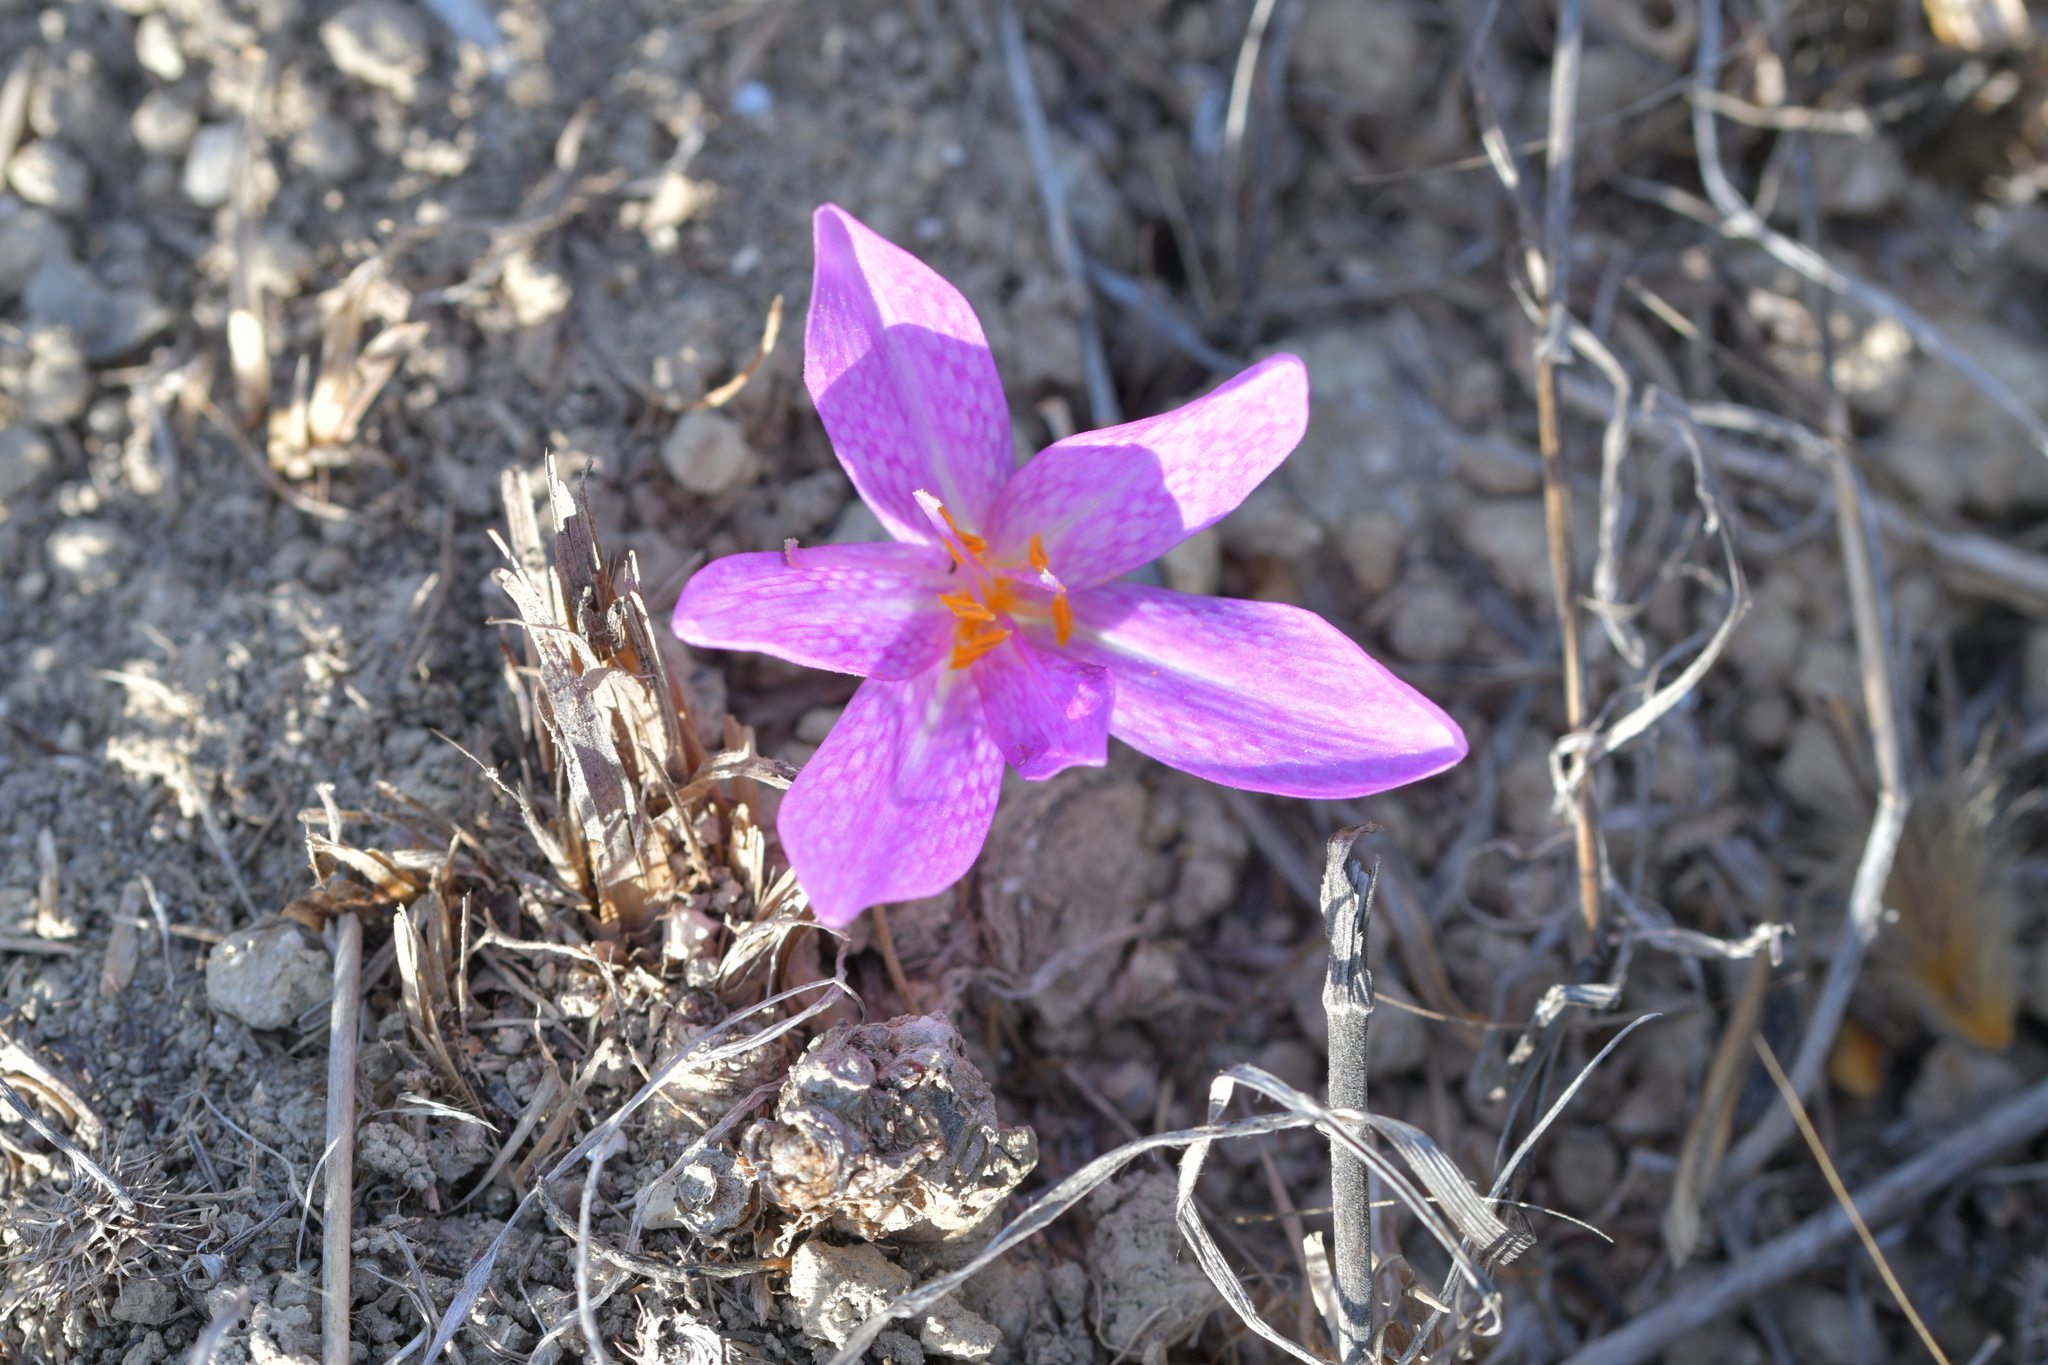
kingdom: Plantae
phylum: Tracheophyta
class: Liliopsida
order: Liliales
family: Colchicaceae
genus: Colchicum
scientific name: Colchicum lusitanum
